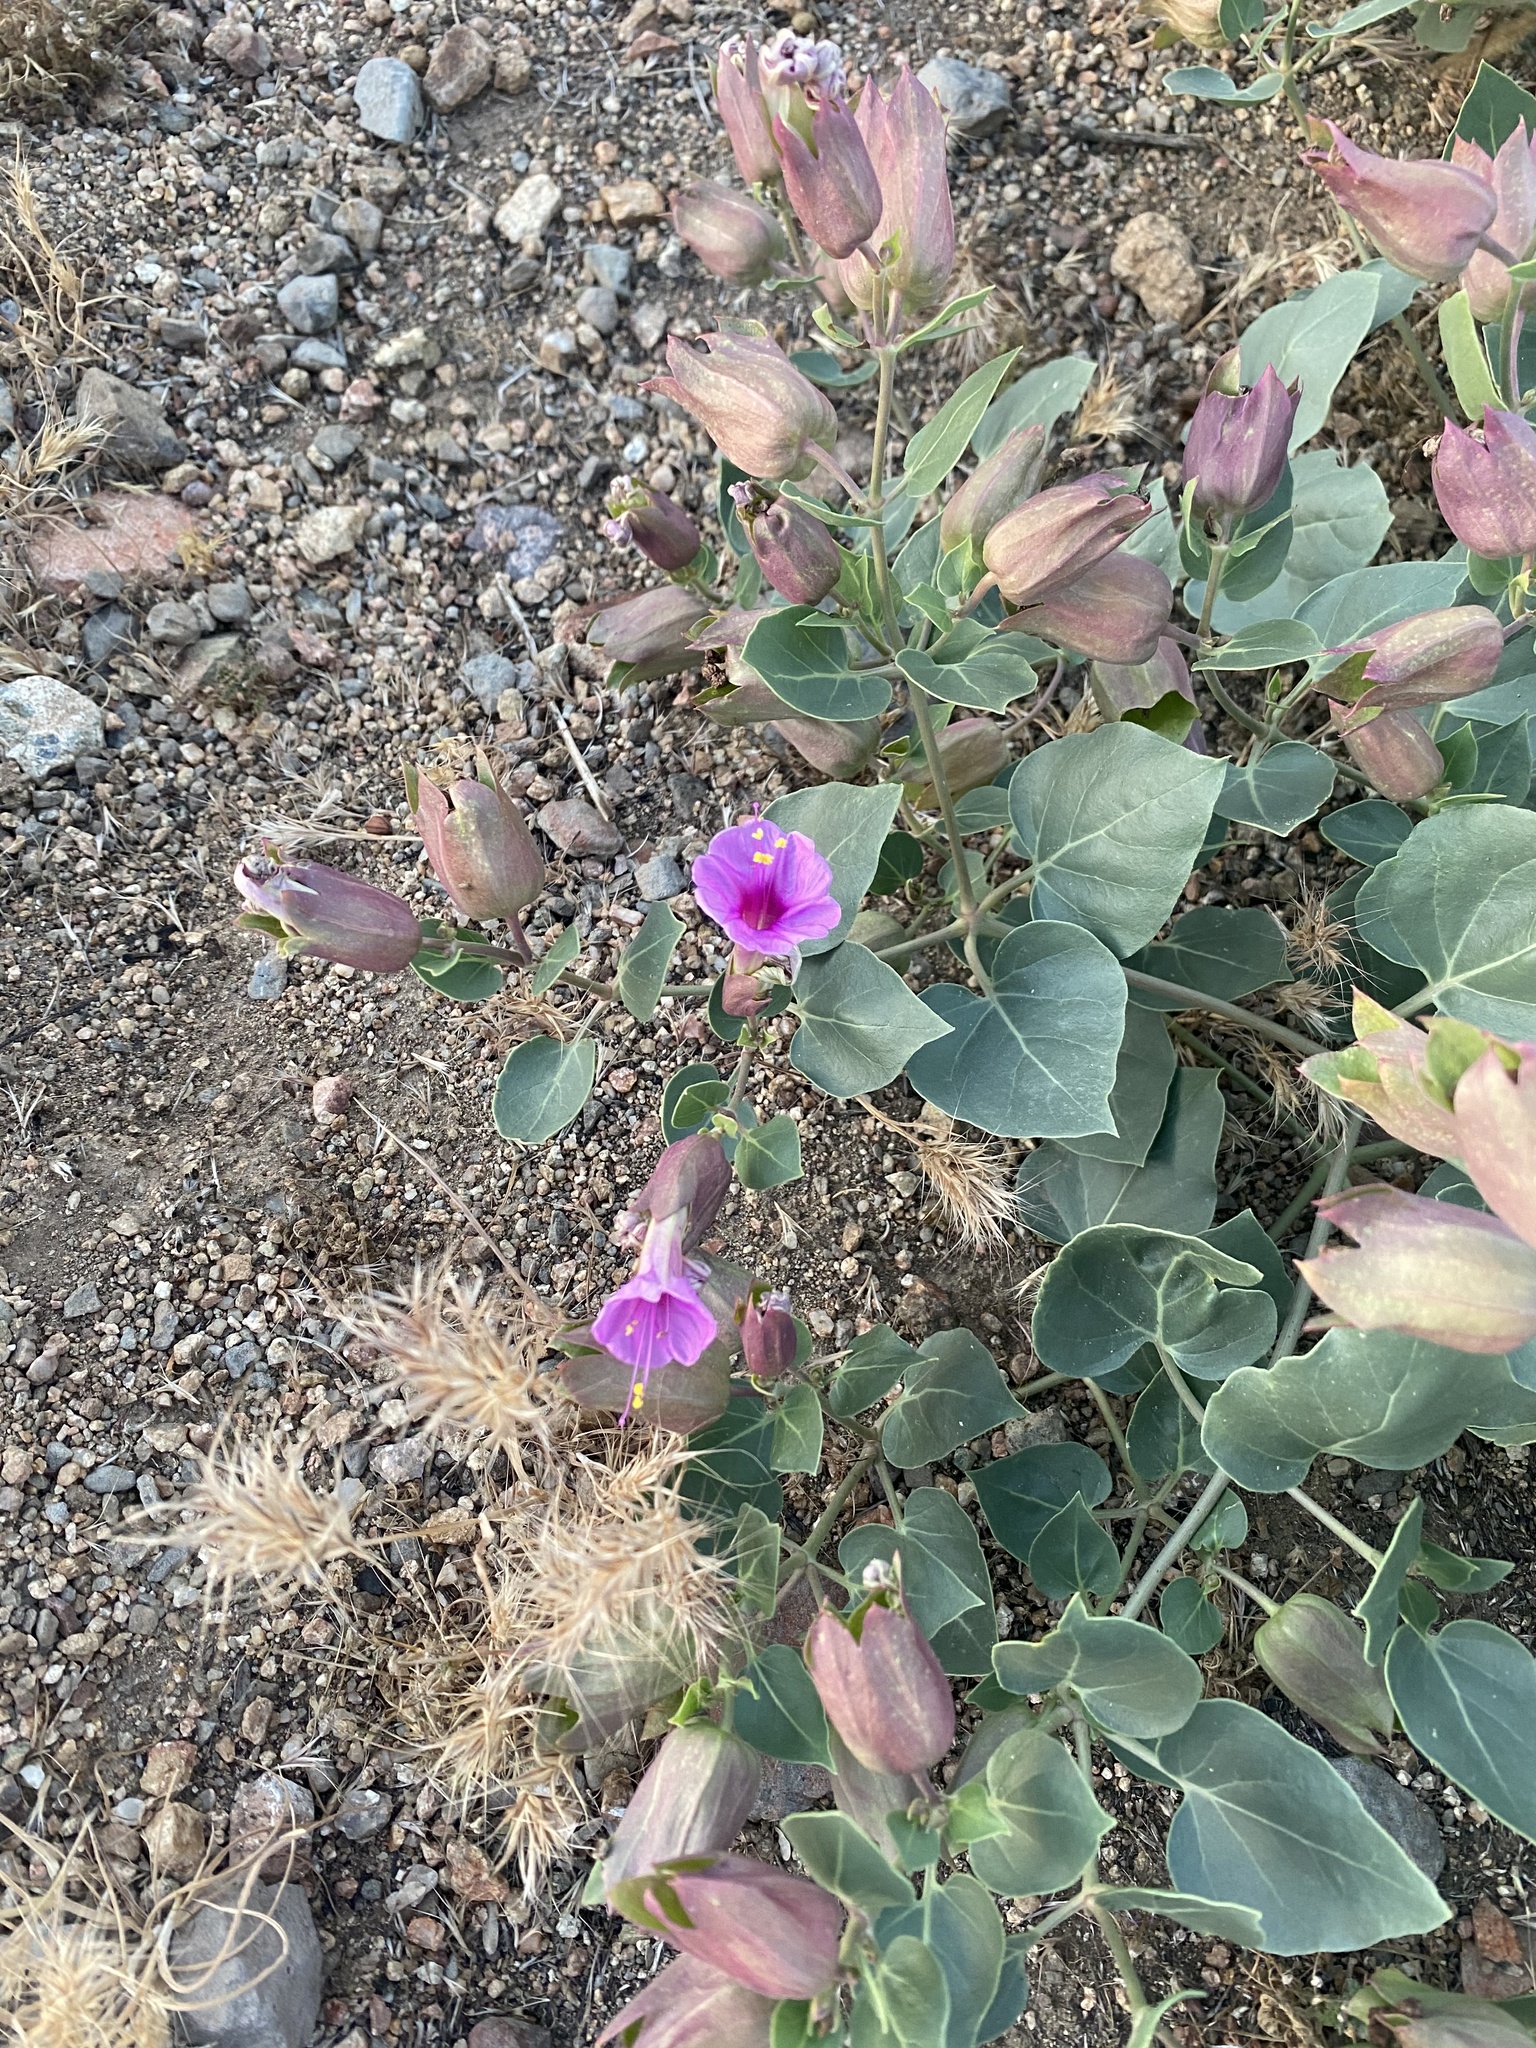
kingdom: Plantae
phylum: Tracheophyta
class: Magnoliopsida
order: Caryophyllales
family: Nyctaginaceae
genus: Mirabilis
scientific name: Mirabilis multiflora
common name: Froebel's four-o'clock
